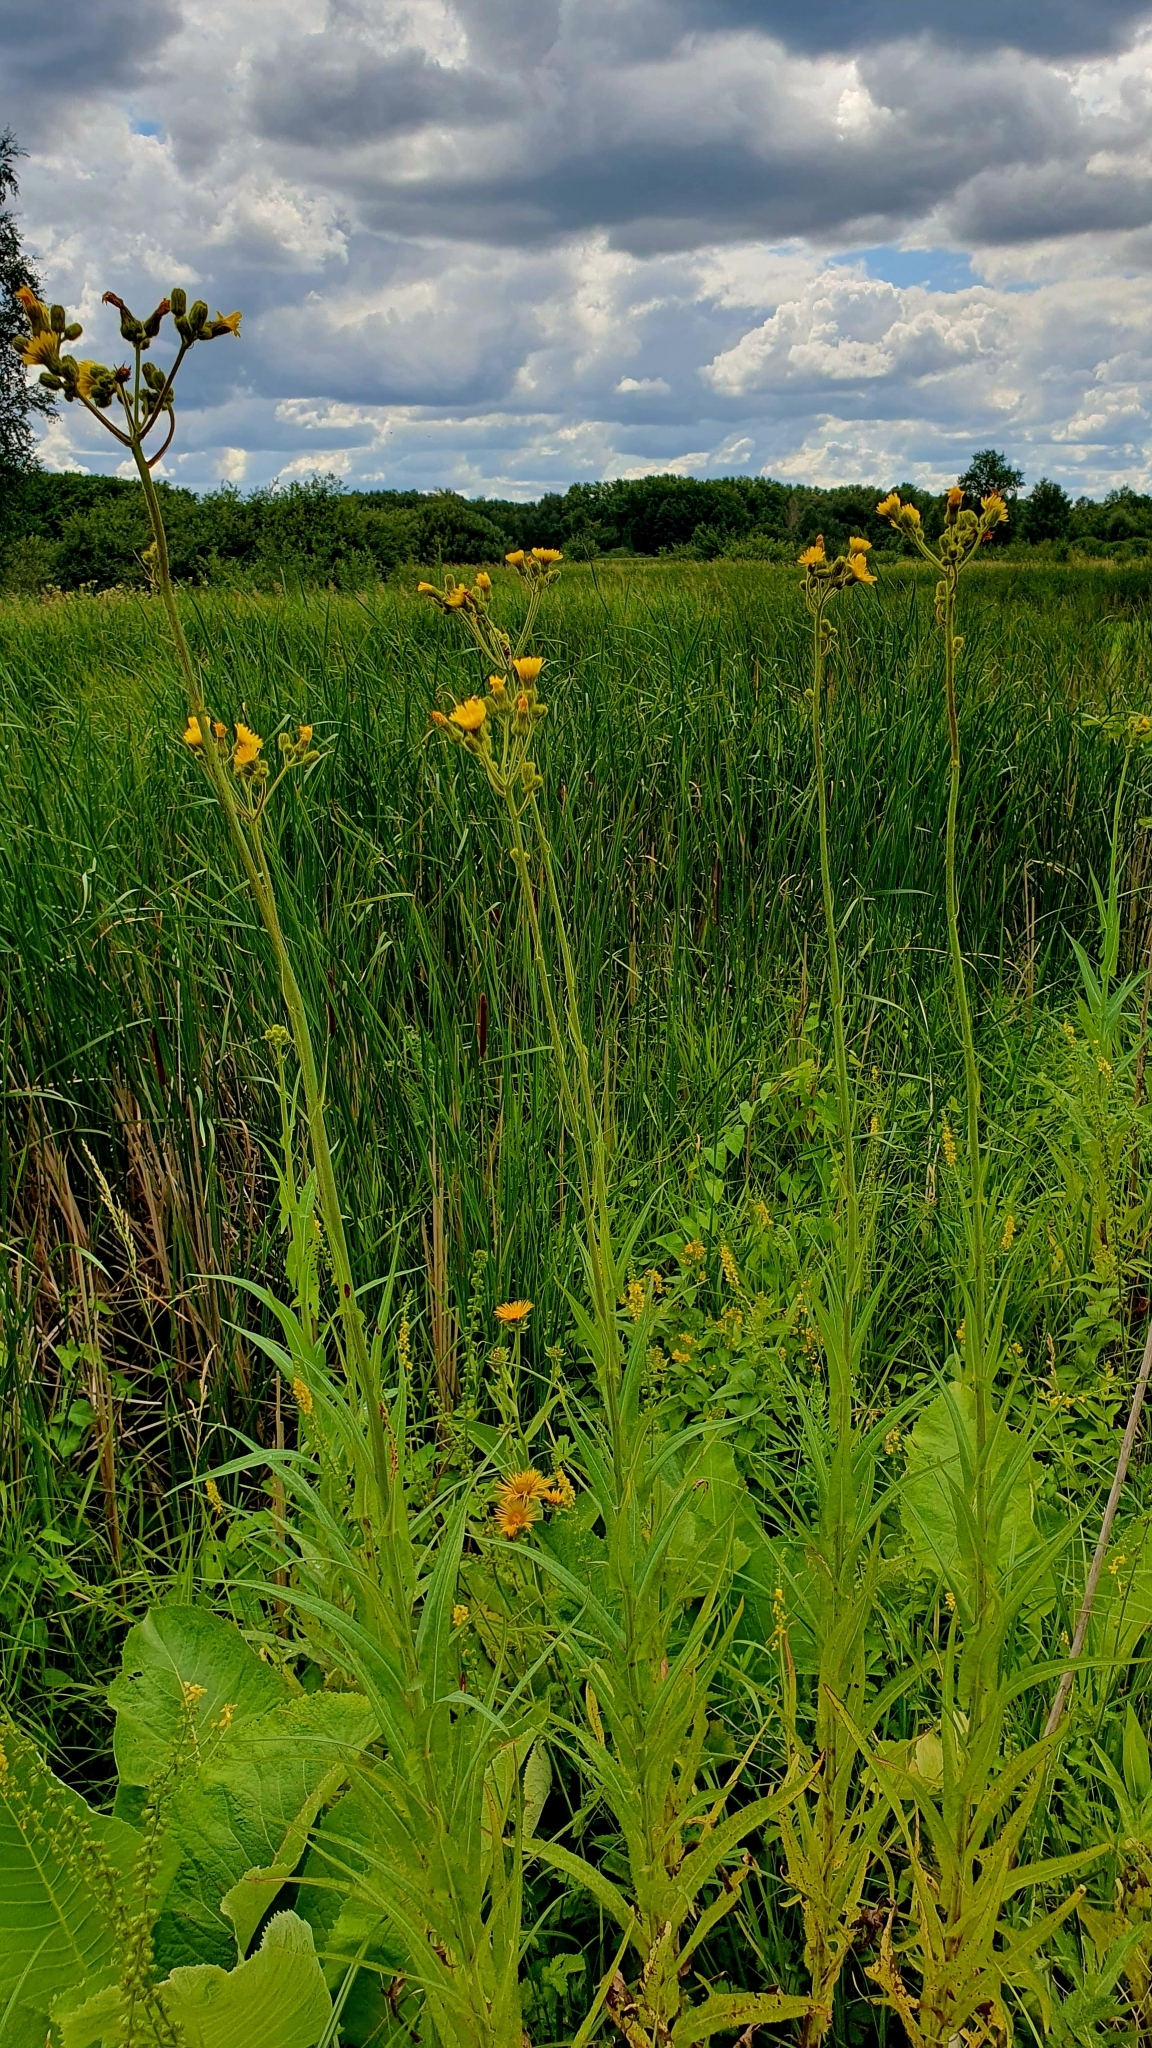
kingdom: Plantae
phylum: Tracheophyta
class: Magnoliopsida
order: Asterales
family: Asteraceae
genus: Sonchus
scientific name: Sonchus palustris
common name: Marsh sow-thistle
